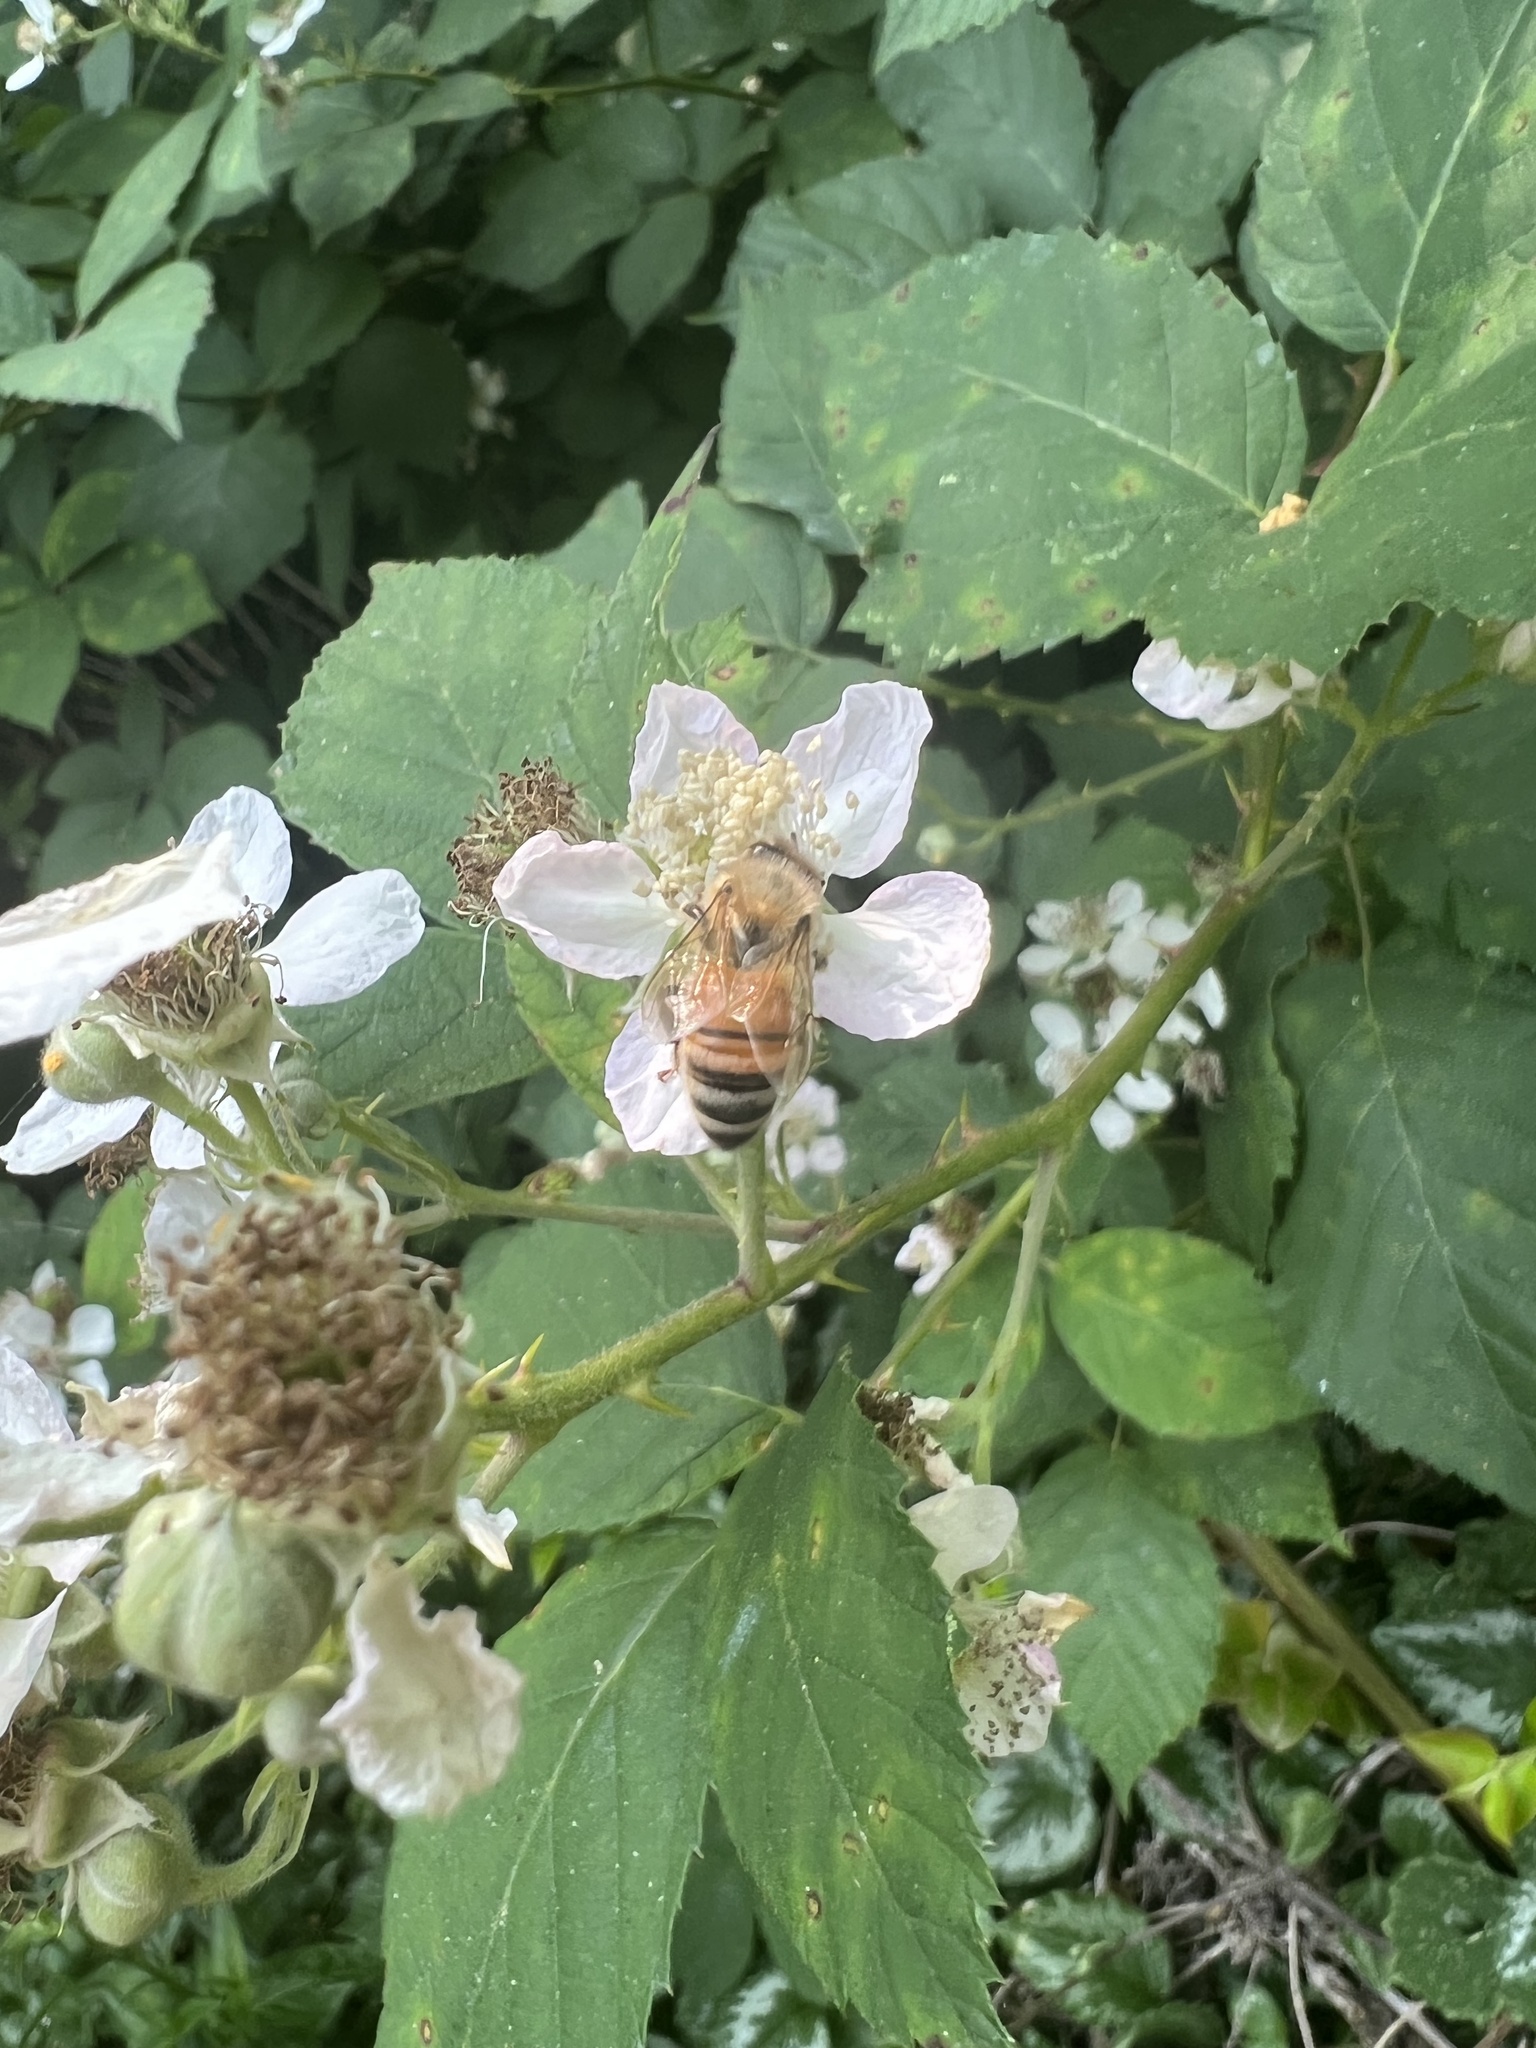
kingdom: Animalia
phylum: Arthropoda
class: Insecta
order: Hymenoptera
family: Apidae
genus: Apis
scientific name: Apis mellifera
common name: Honey bee
